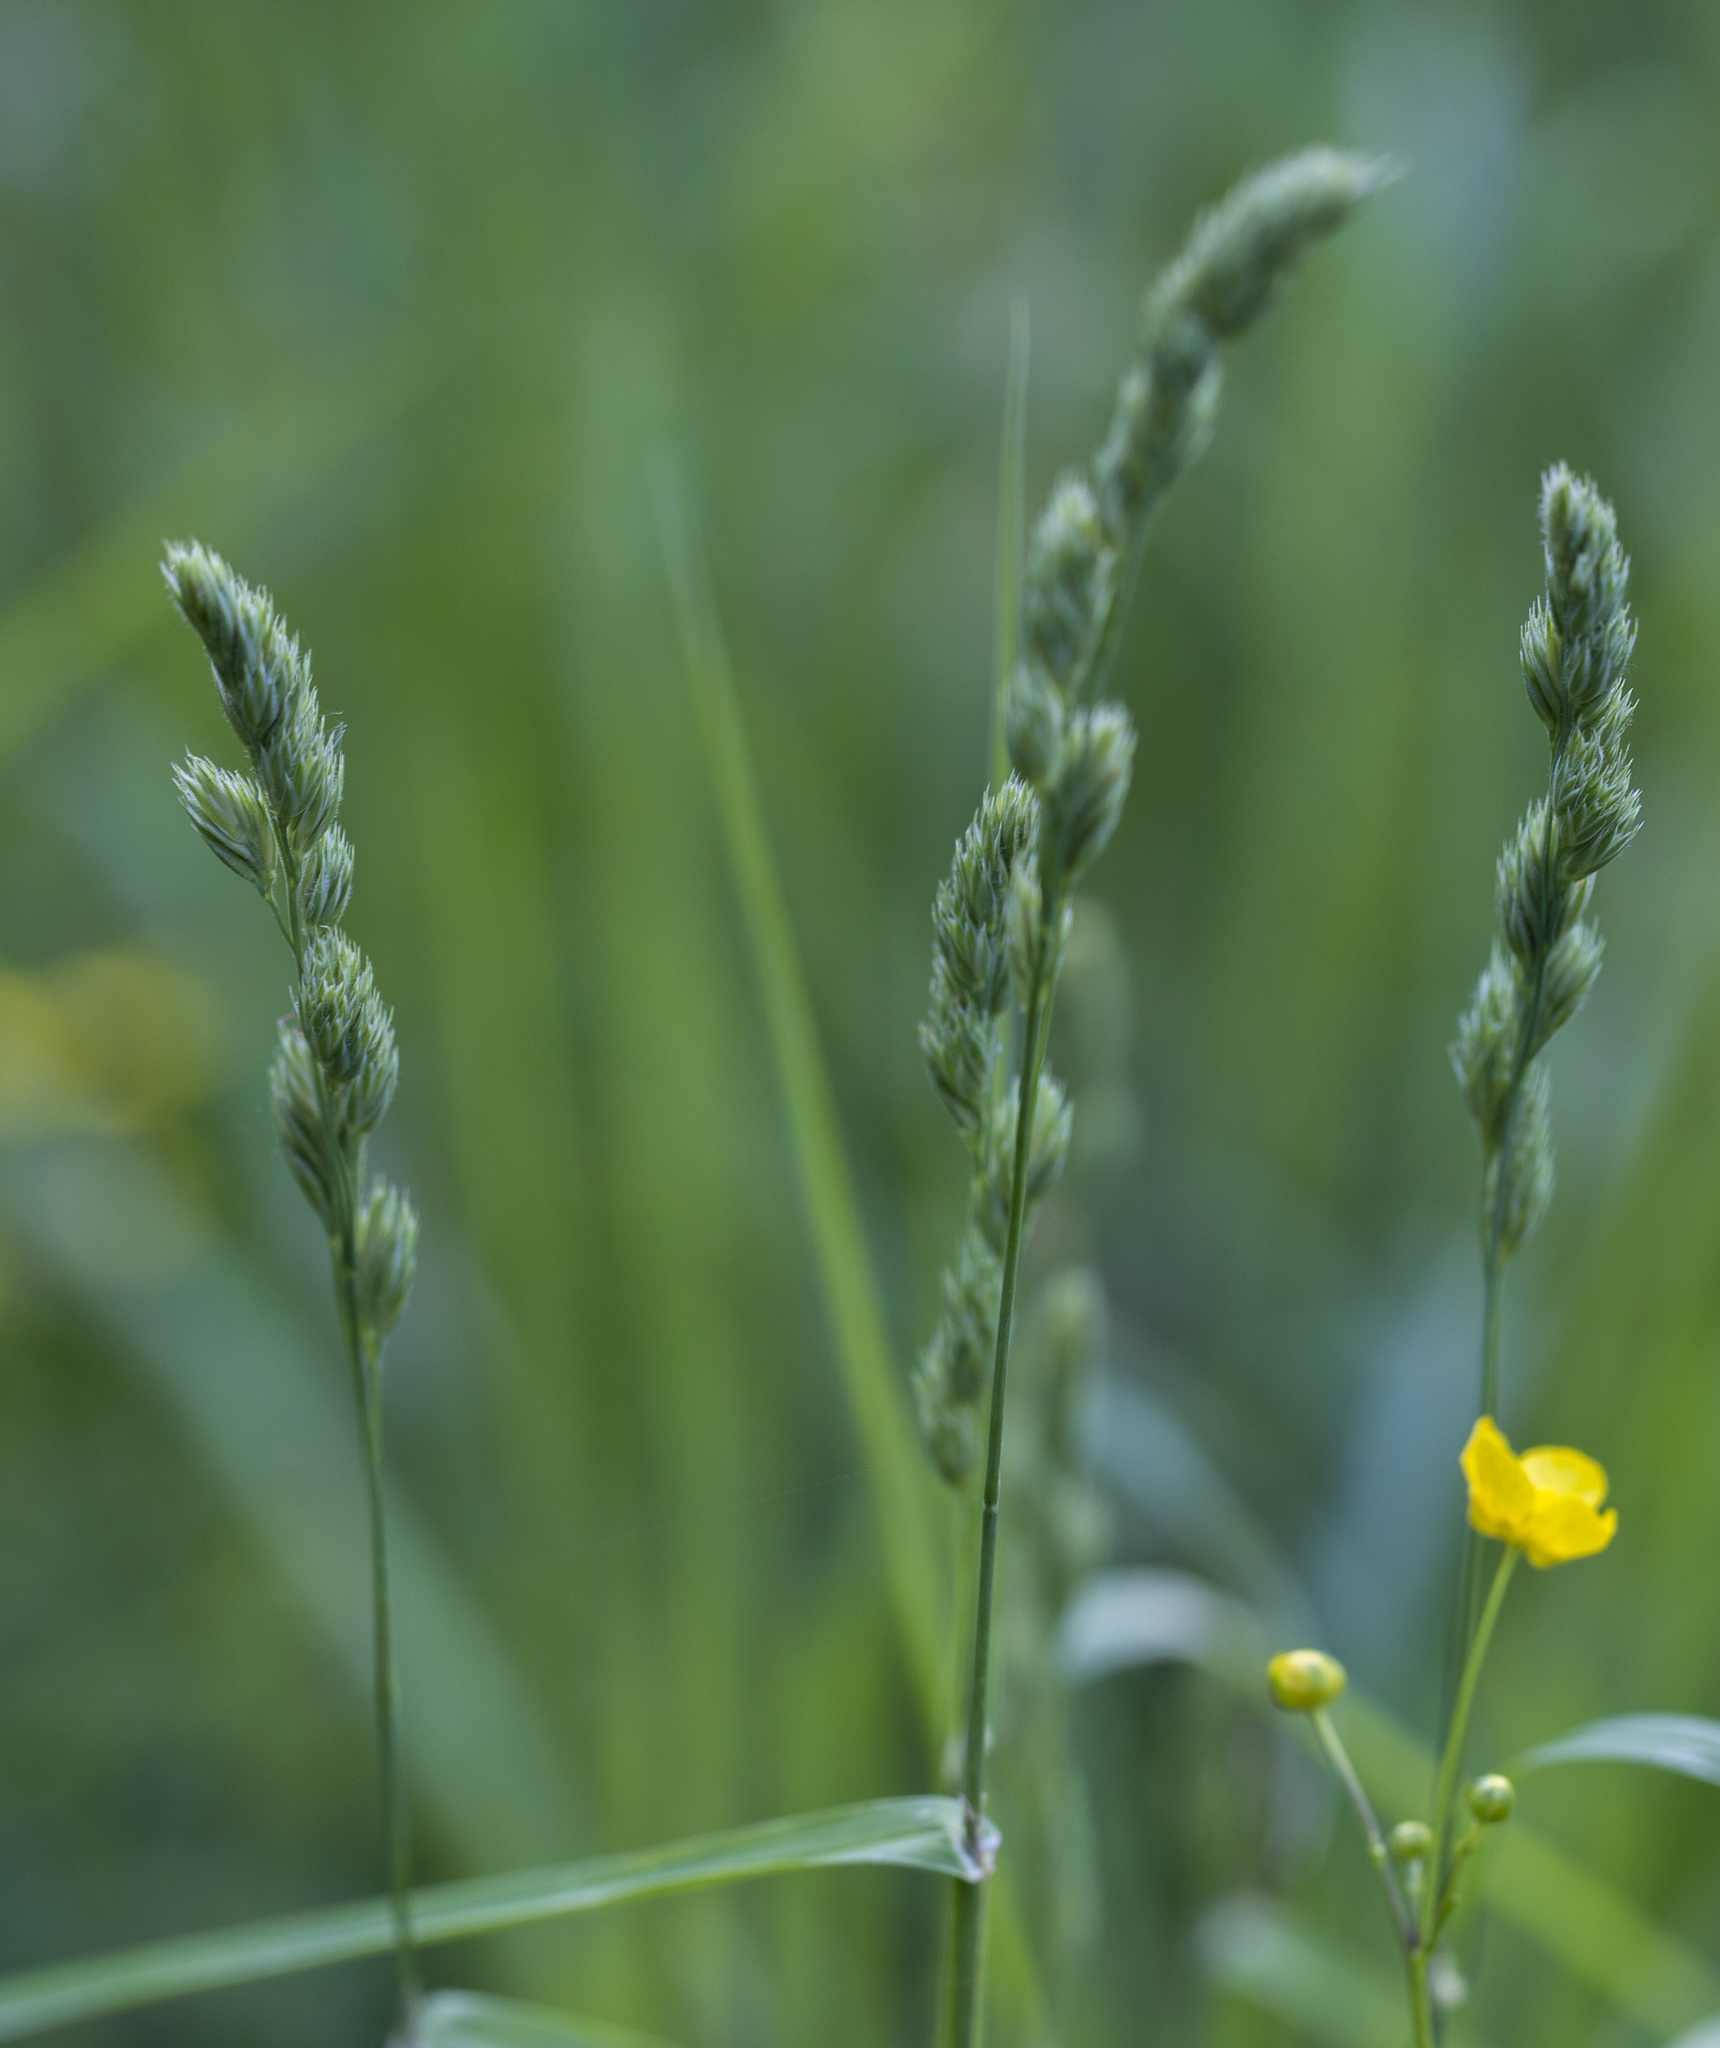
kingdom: Plantae
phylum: Tracheophyta
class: Liliopsida
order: Poales
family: Poaceae
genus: Dactylis
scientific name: Dactylis glomerata
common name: Orchardgrass
